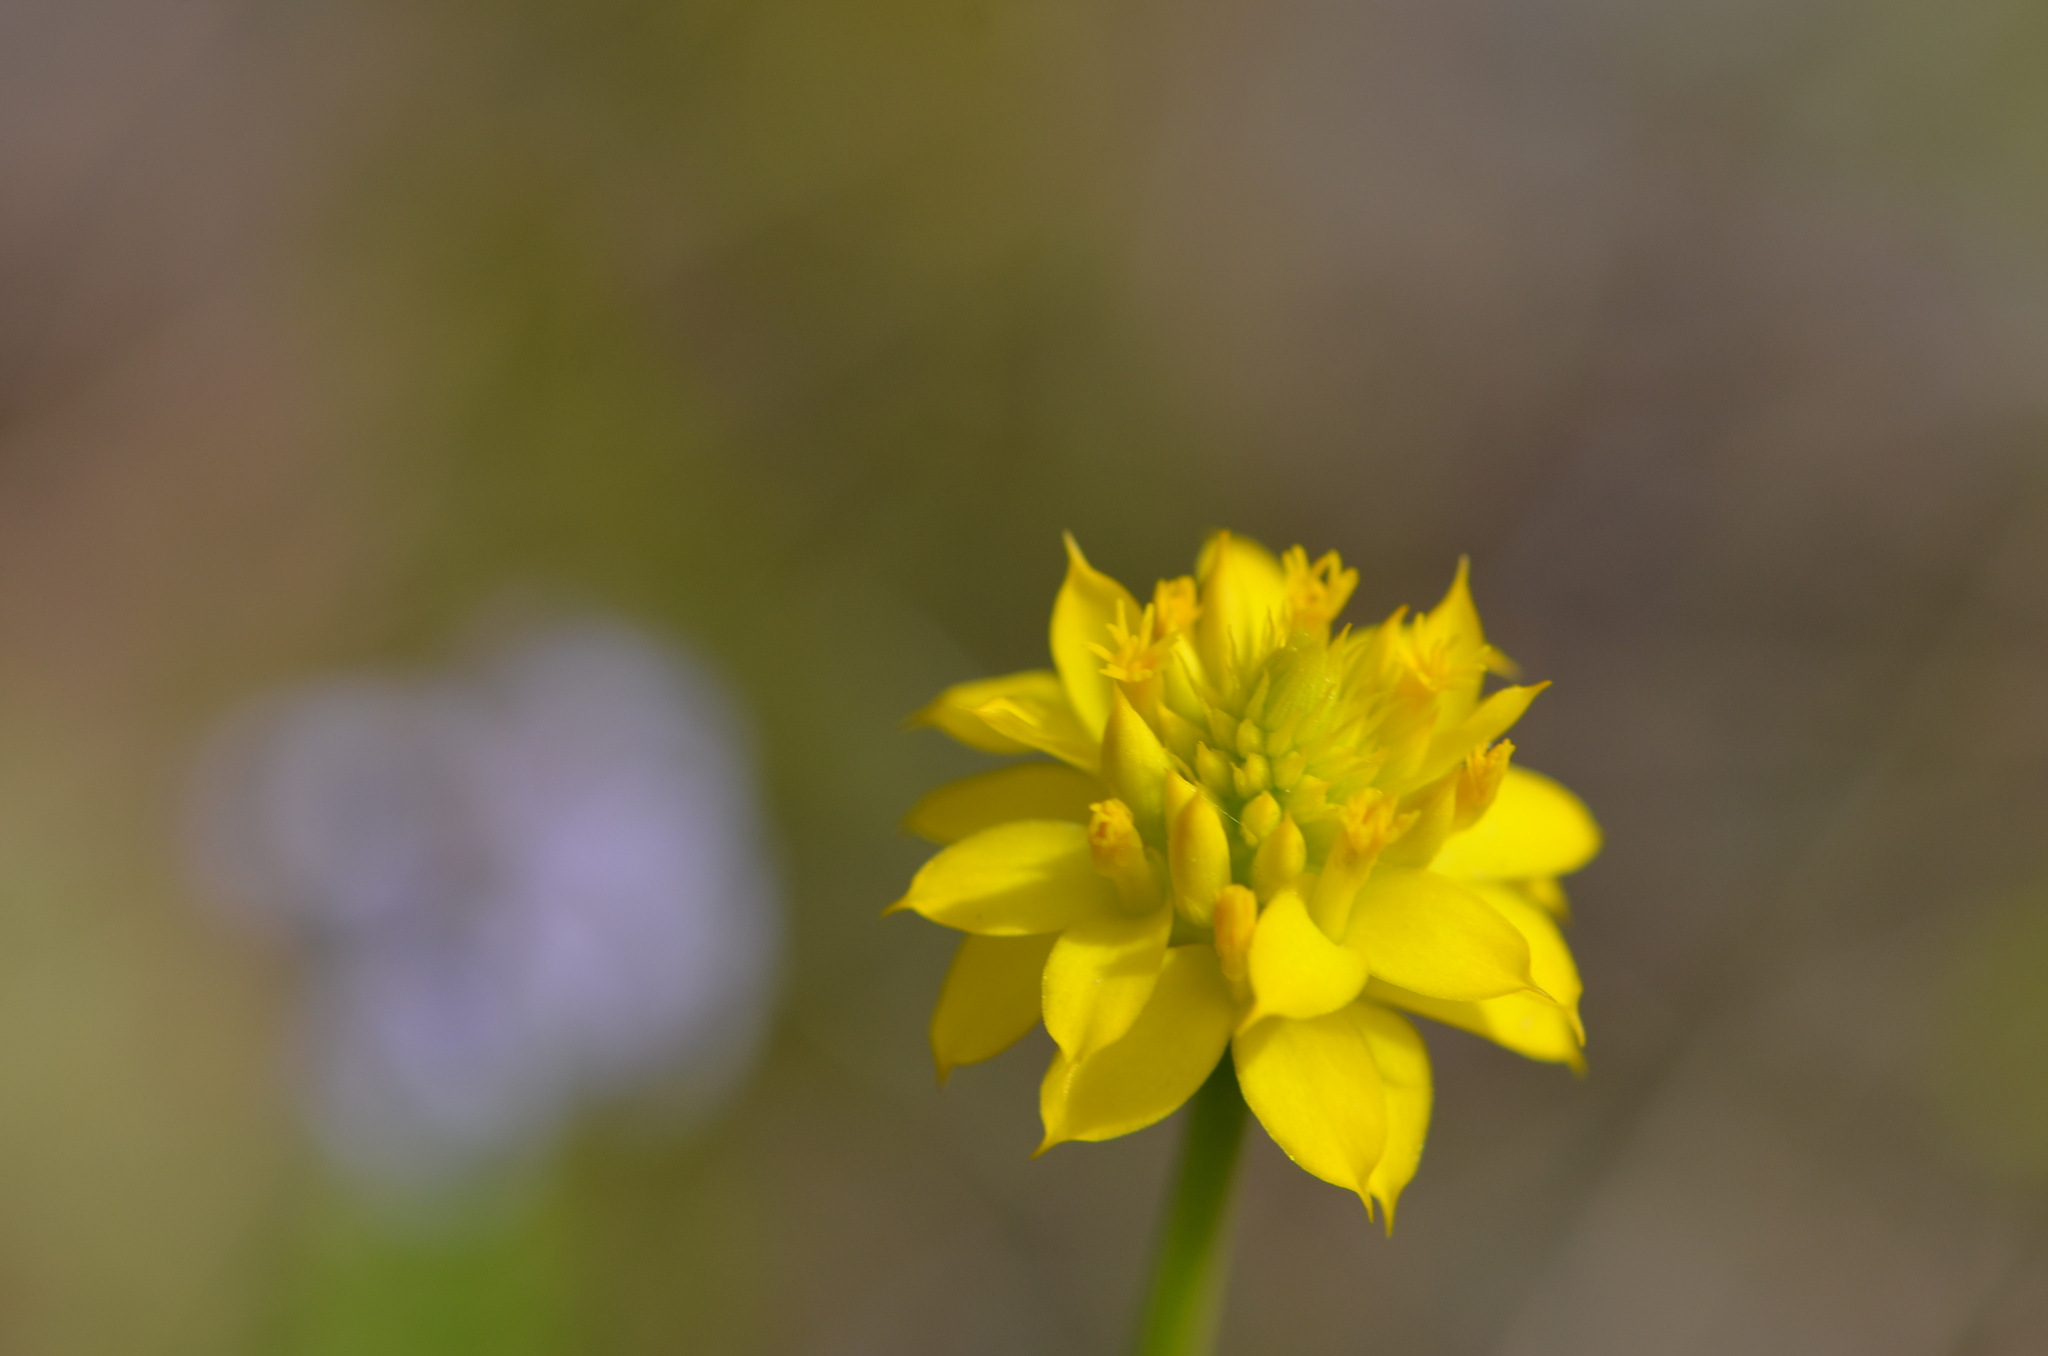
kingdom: Plantae
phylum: Tracheophyta
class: Magnoliopsida
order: Fabales
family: Polygalaceae
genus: Polygala
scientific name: Polygala rugelii
